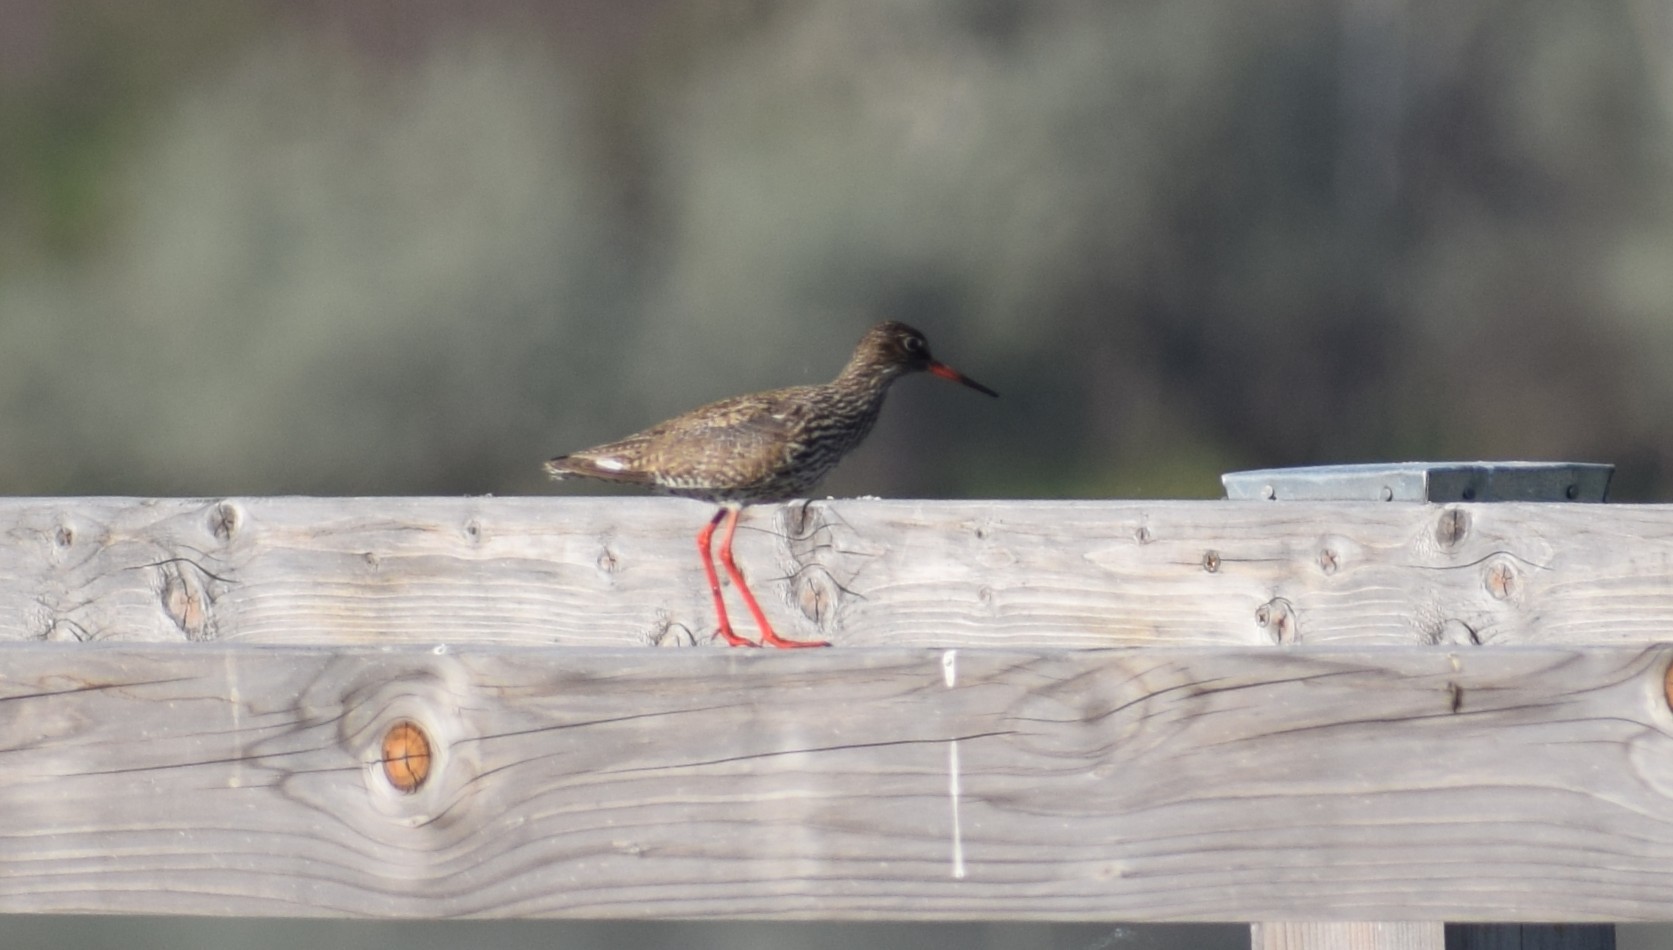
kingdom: Animalia
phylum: Chordata
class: Aves
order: Charadriiformes
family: Scolopacidae
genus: Tringa
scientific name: Tringa totanus
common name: Common redshank
